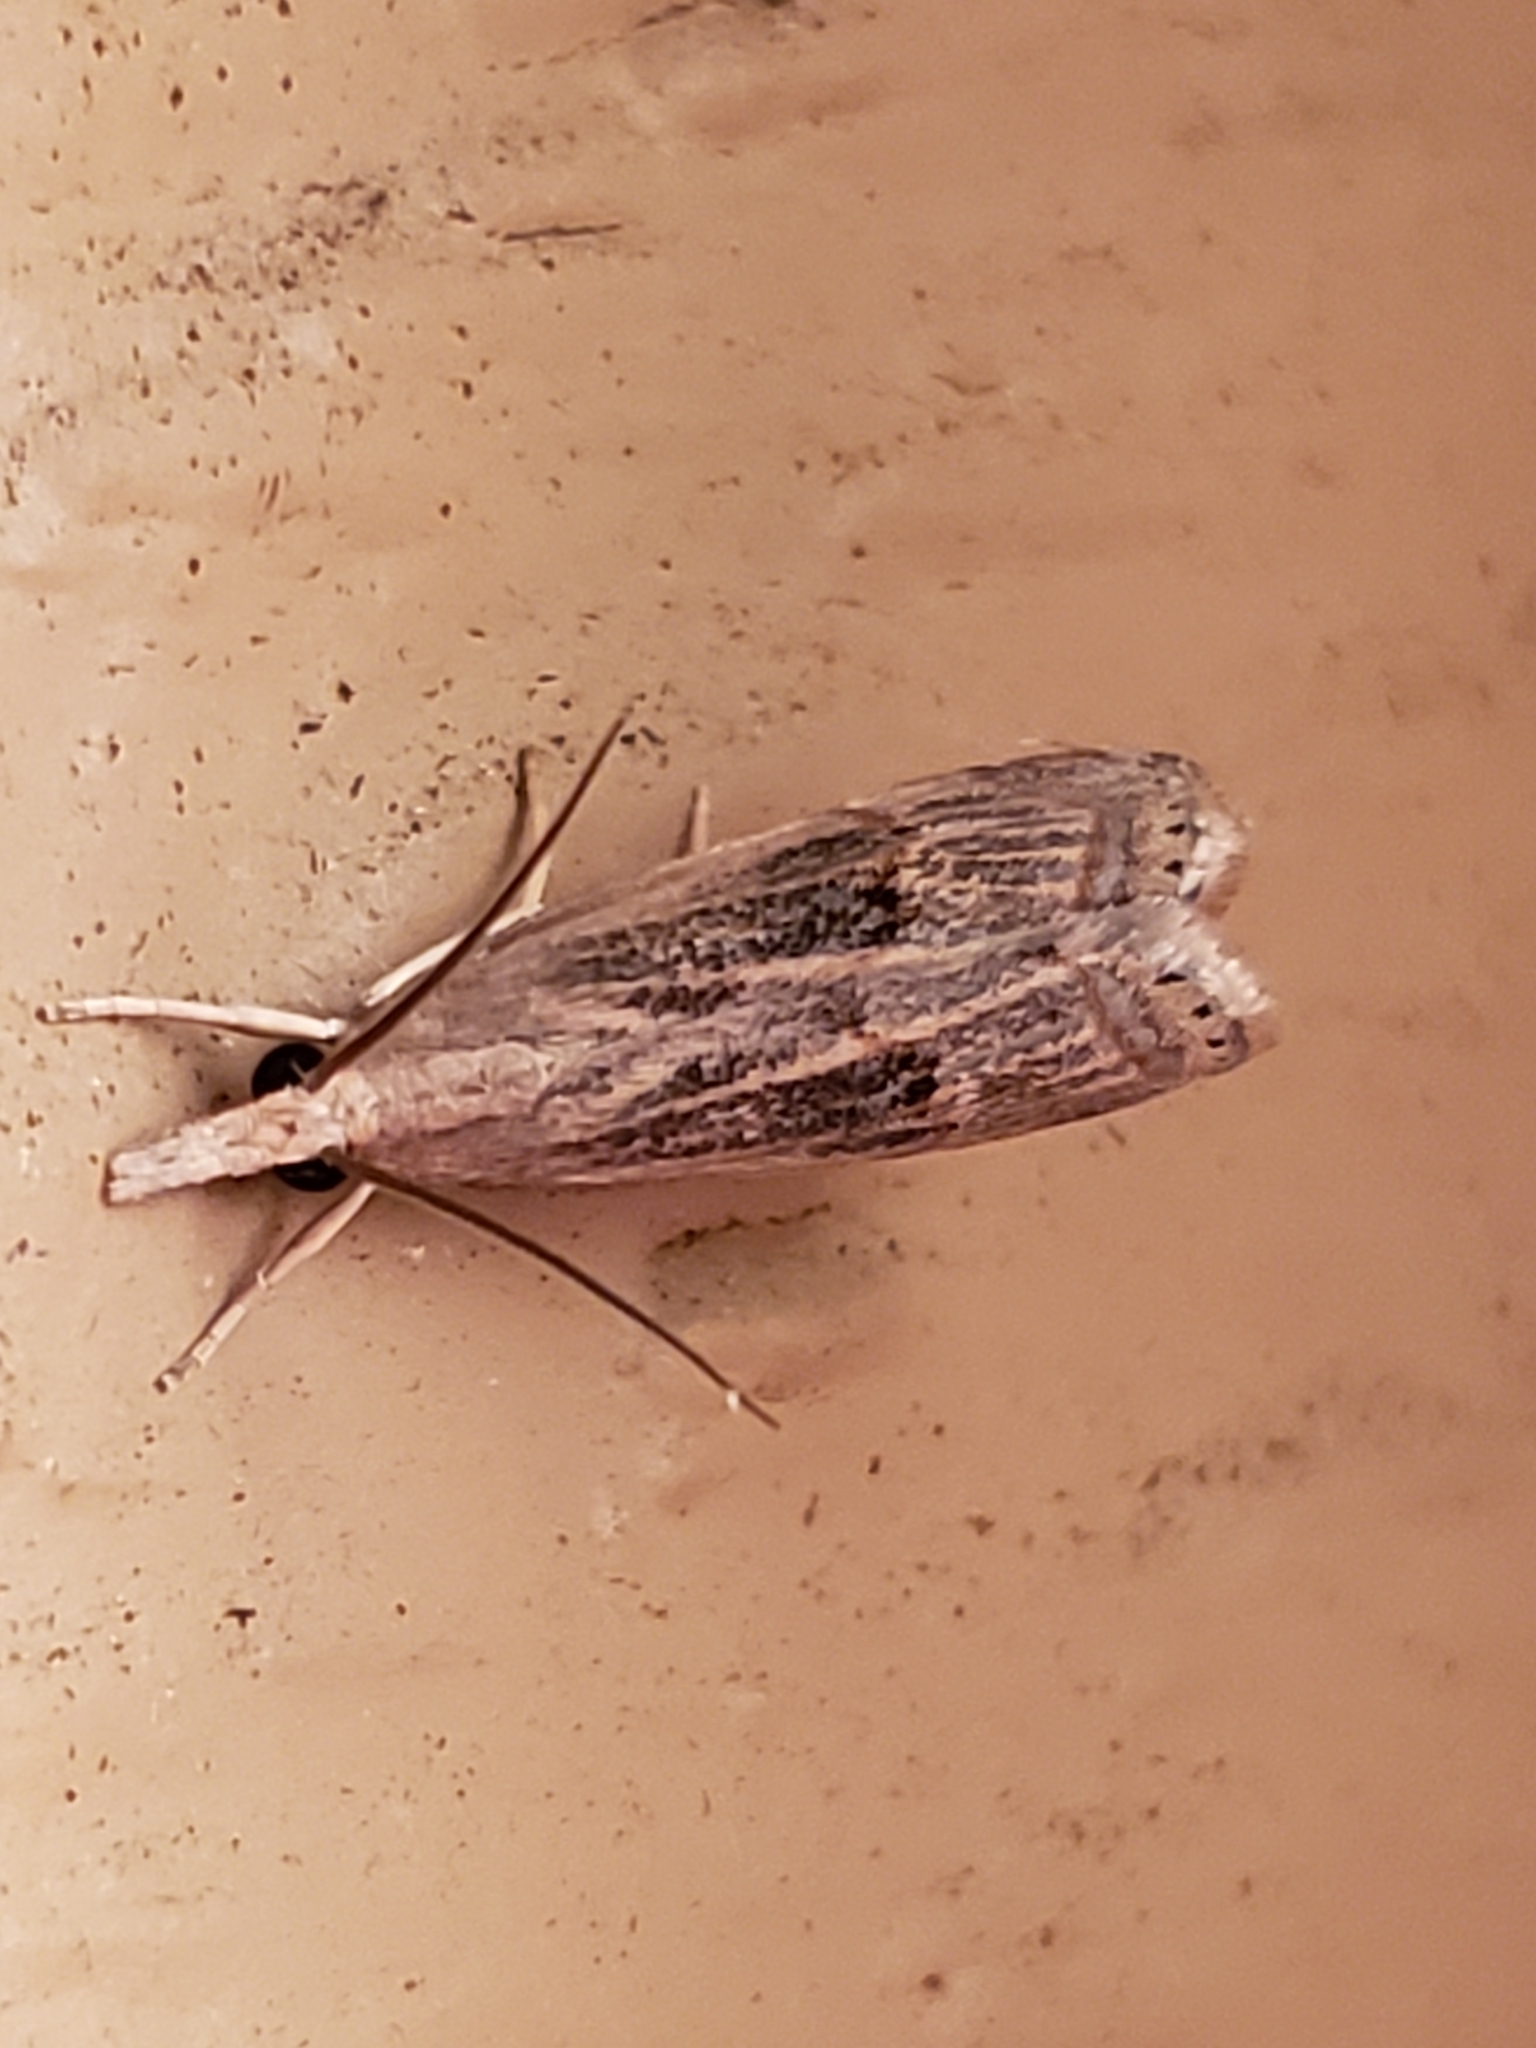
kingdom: Animalia
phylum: Arthropoda
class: Insecta
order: Lepidoptera
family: Crambidae
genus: Parapediasia
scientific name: Parapediasia teterellus
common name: Bluegrass webworm moth
